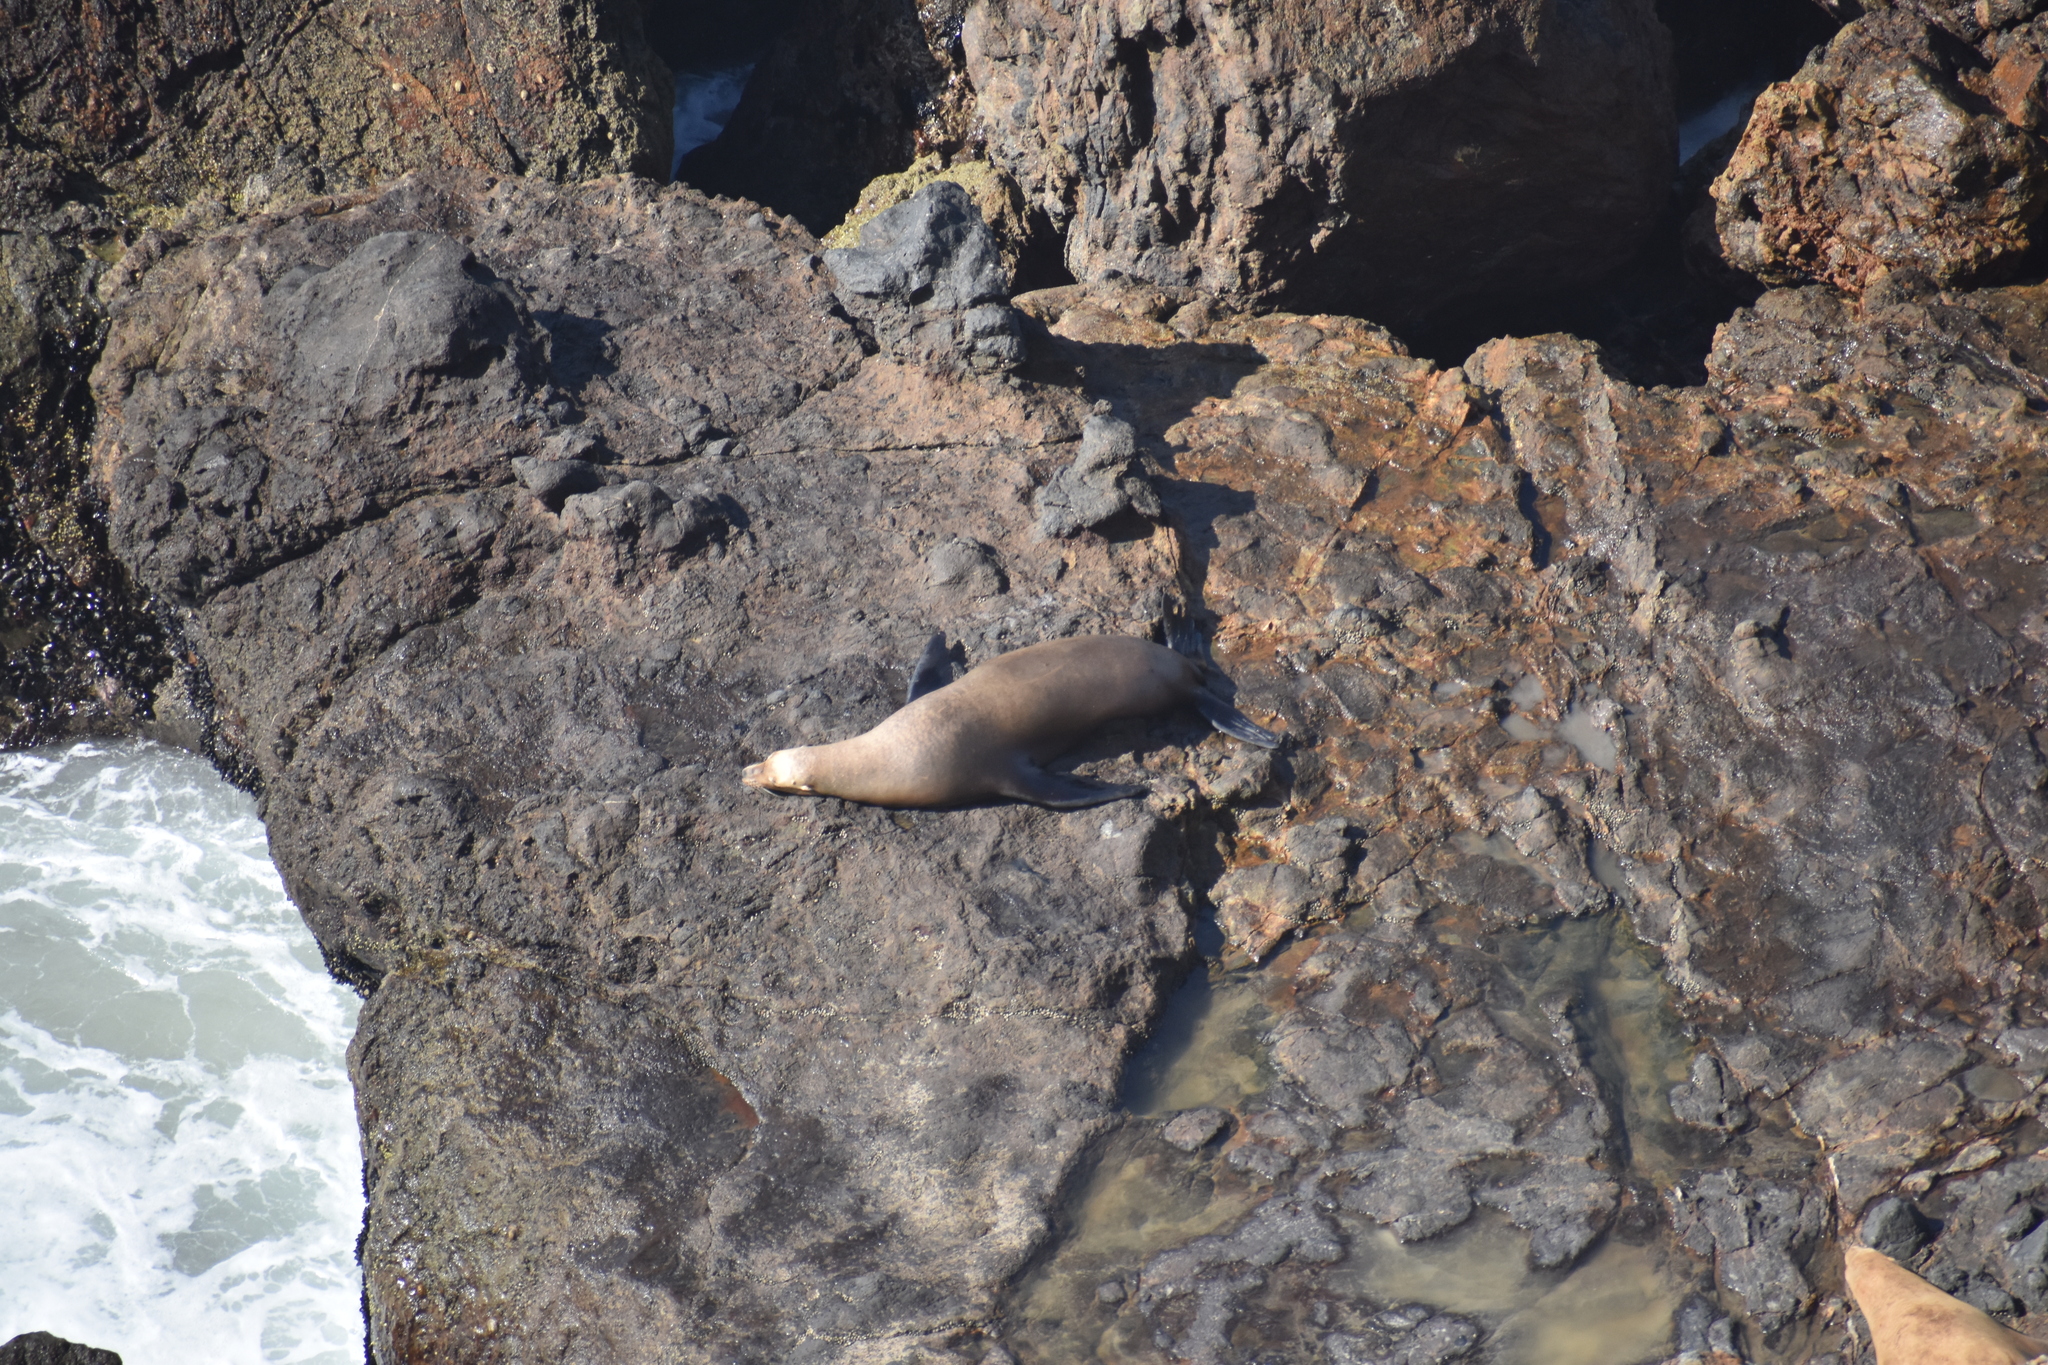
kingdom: Animalia
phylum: Chordata
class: Mammalia
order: Carnivora
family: Otariidae
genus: Zalophus
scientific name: Zalophus californianus
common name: California sea lion
